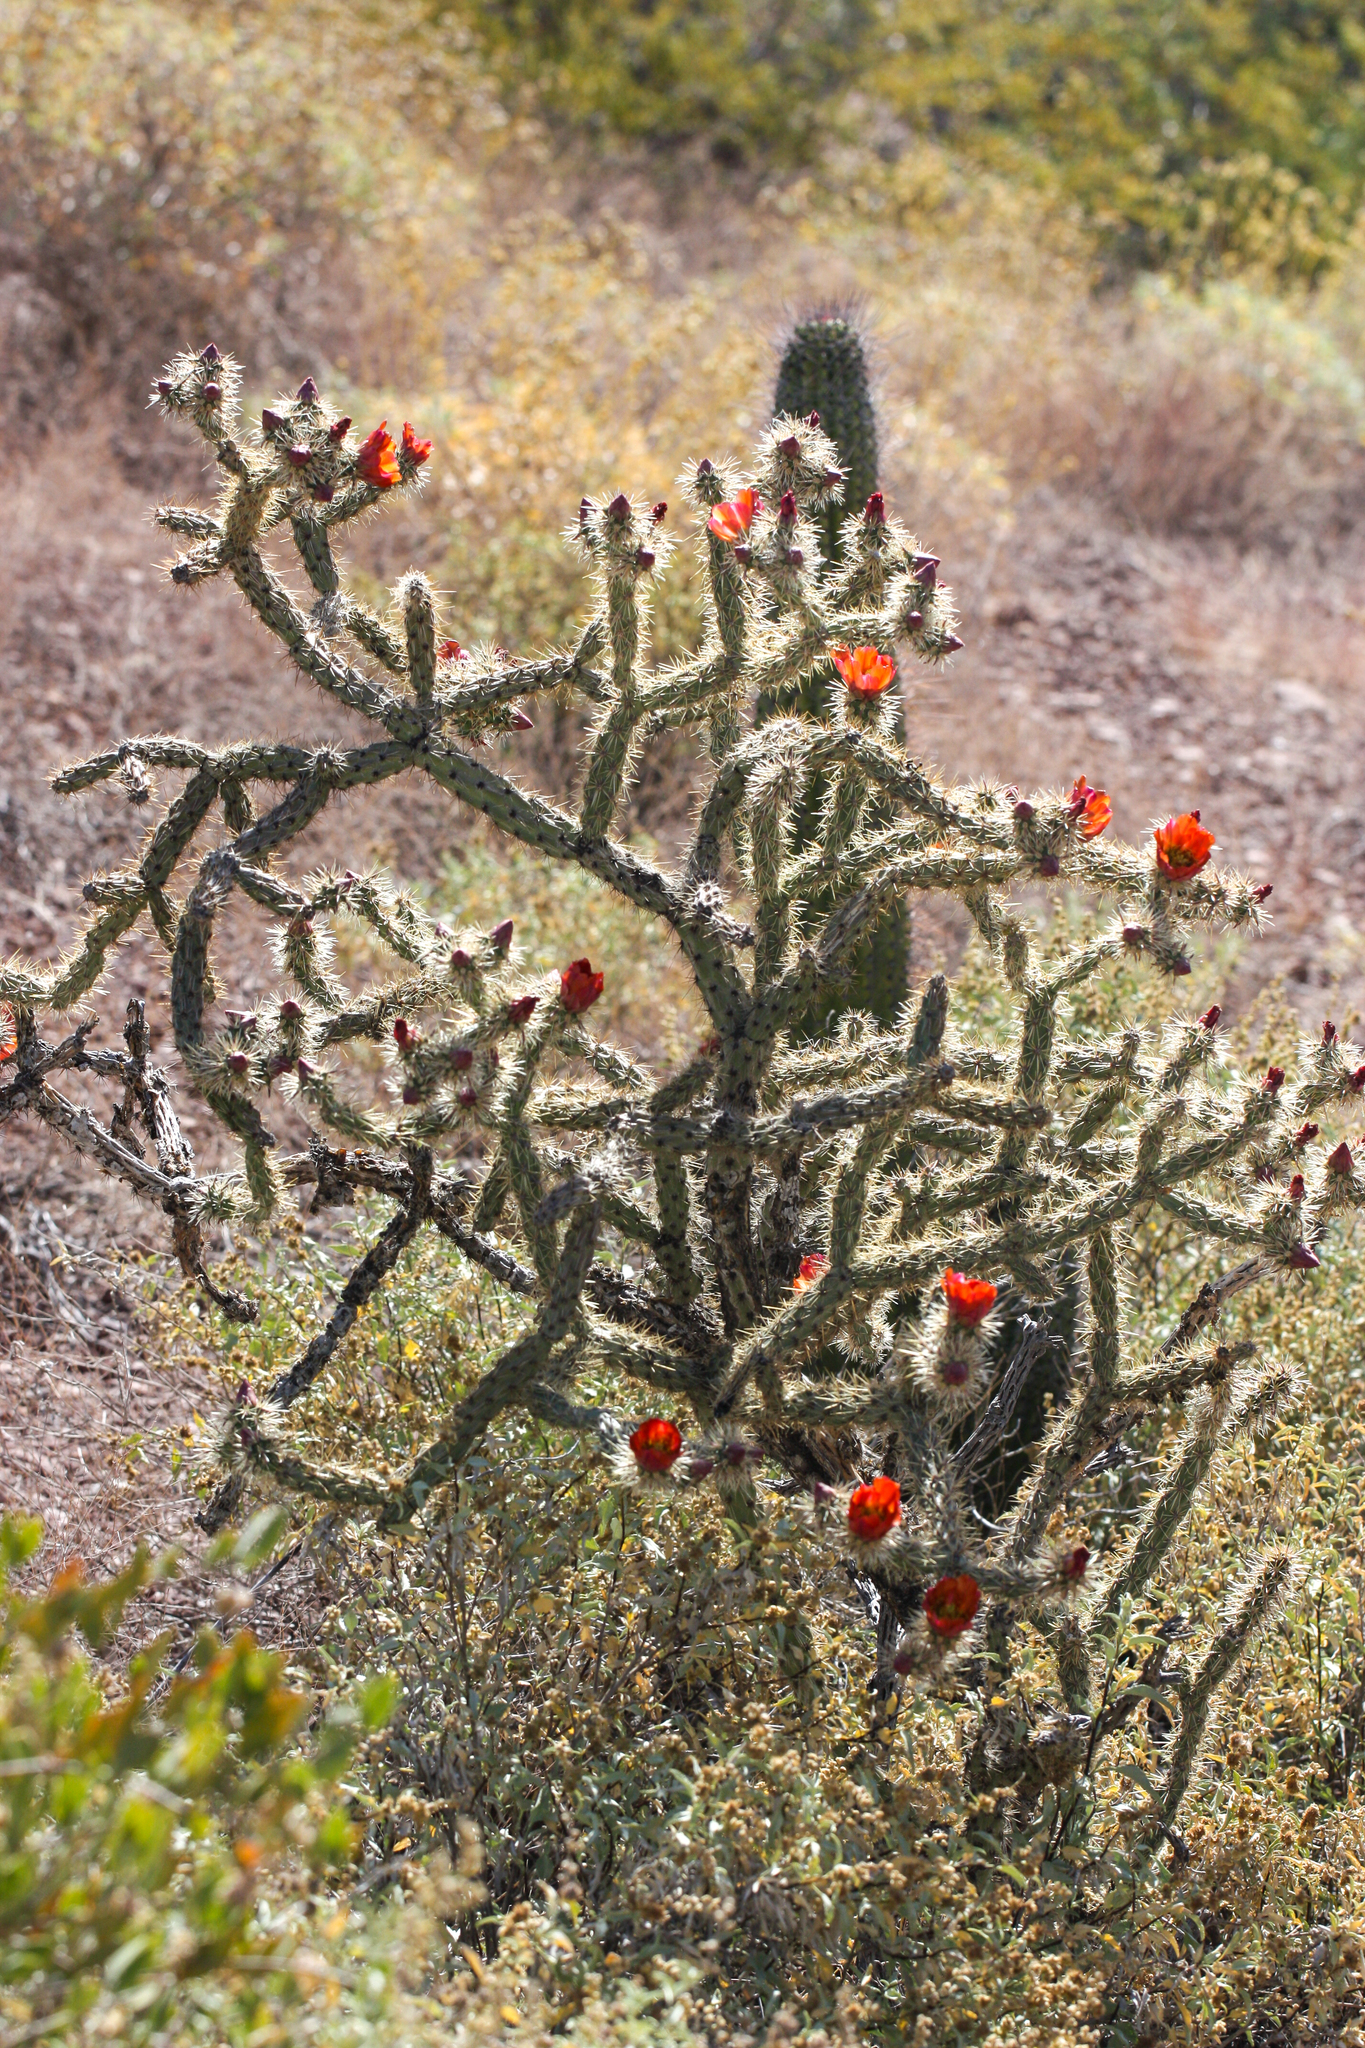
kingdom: Plantae
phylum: Tracheophyta
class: Magnoliopsida
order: Caryophyllales
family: Cactaceae
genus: Cylindropuntia
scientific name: Cylindropuntia acanthocarpa
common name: Buckhorn cholla
